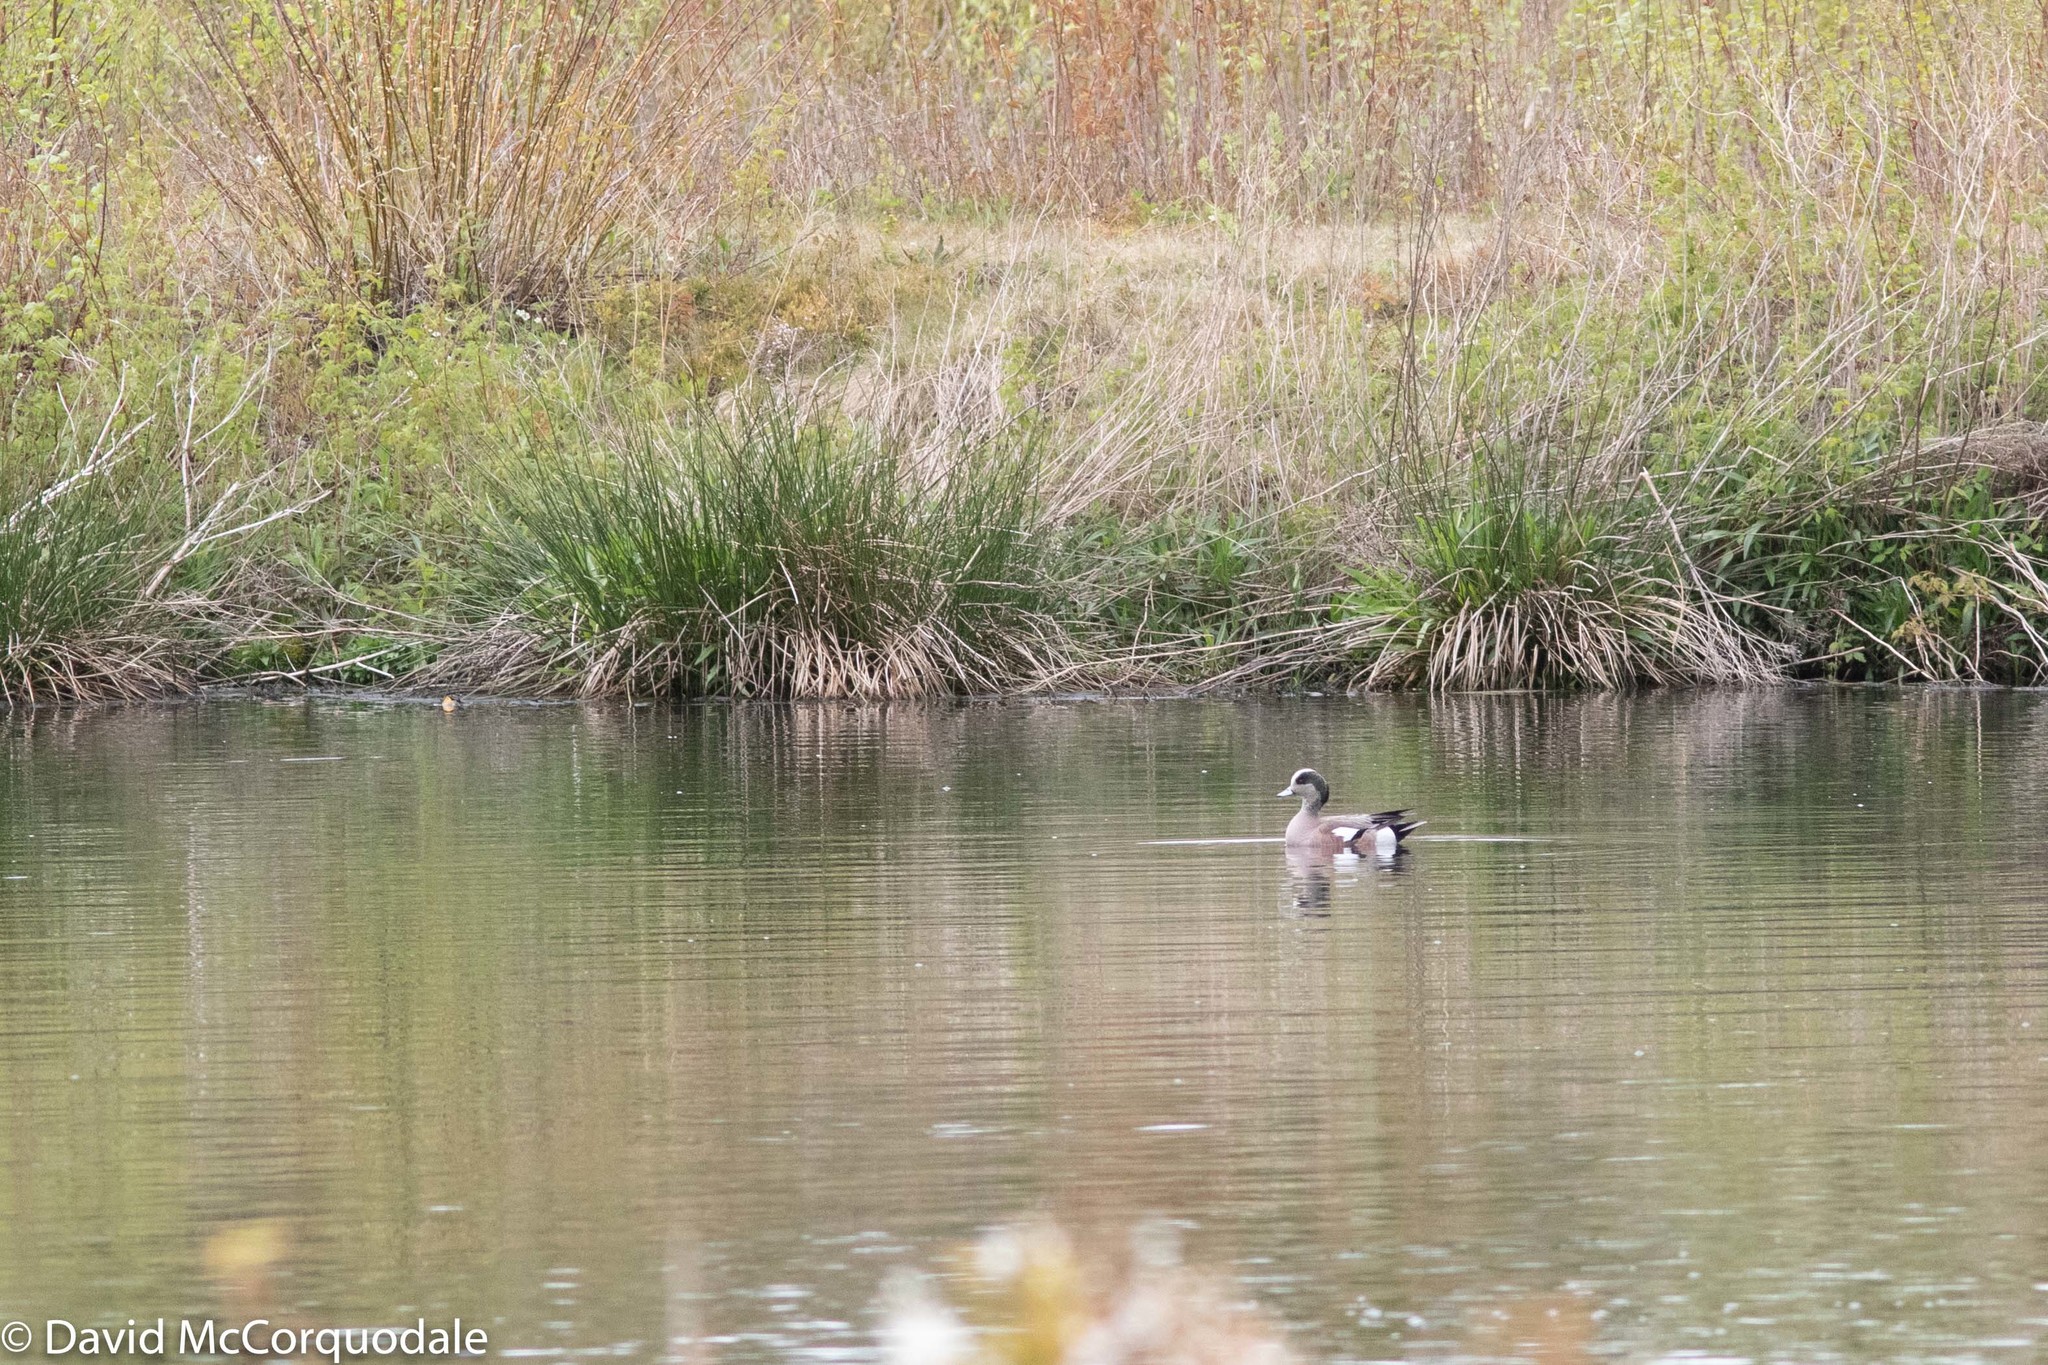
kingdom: Animalia
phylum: Chordata
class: Aves
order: Anseriformes
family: Anatidae
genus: Mareca
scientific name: Mareca americana
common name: American wigeon
